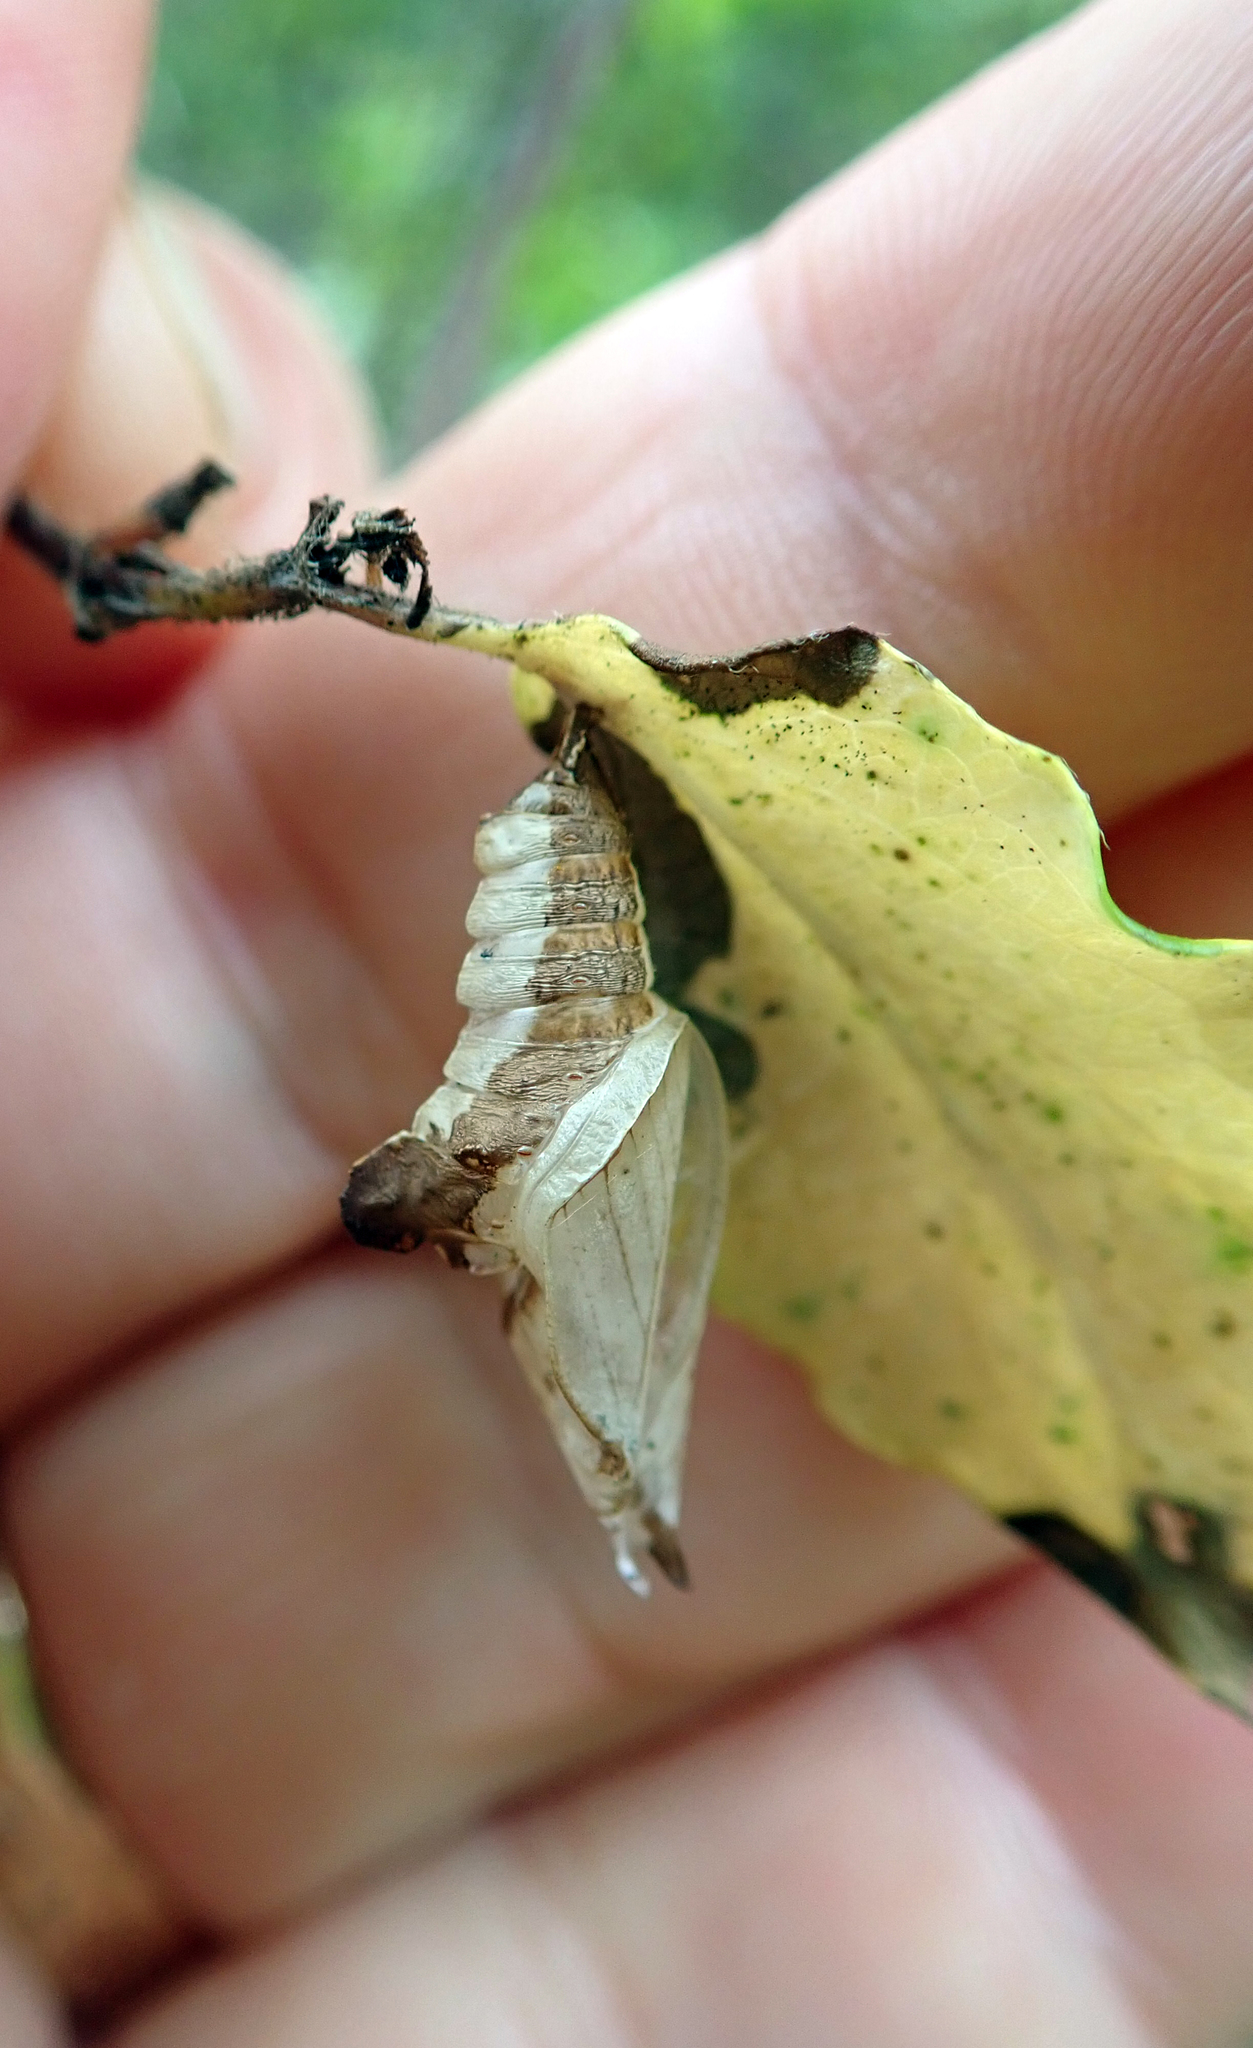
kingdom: Animalia
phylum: Arthropoda
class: Insecta
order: Lepidoptera
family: Nymphalidae
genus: Ladoga
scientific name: Ladoga camilla
